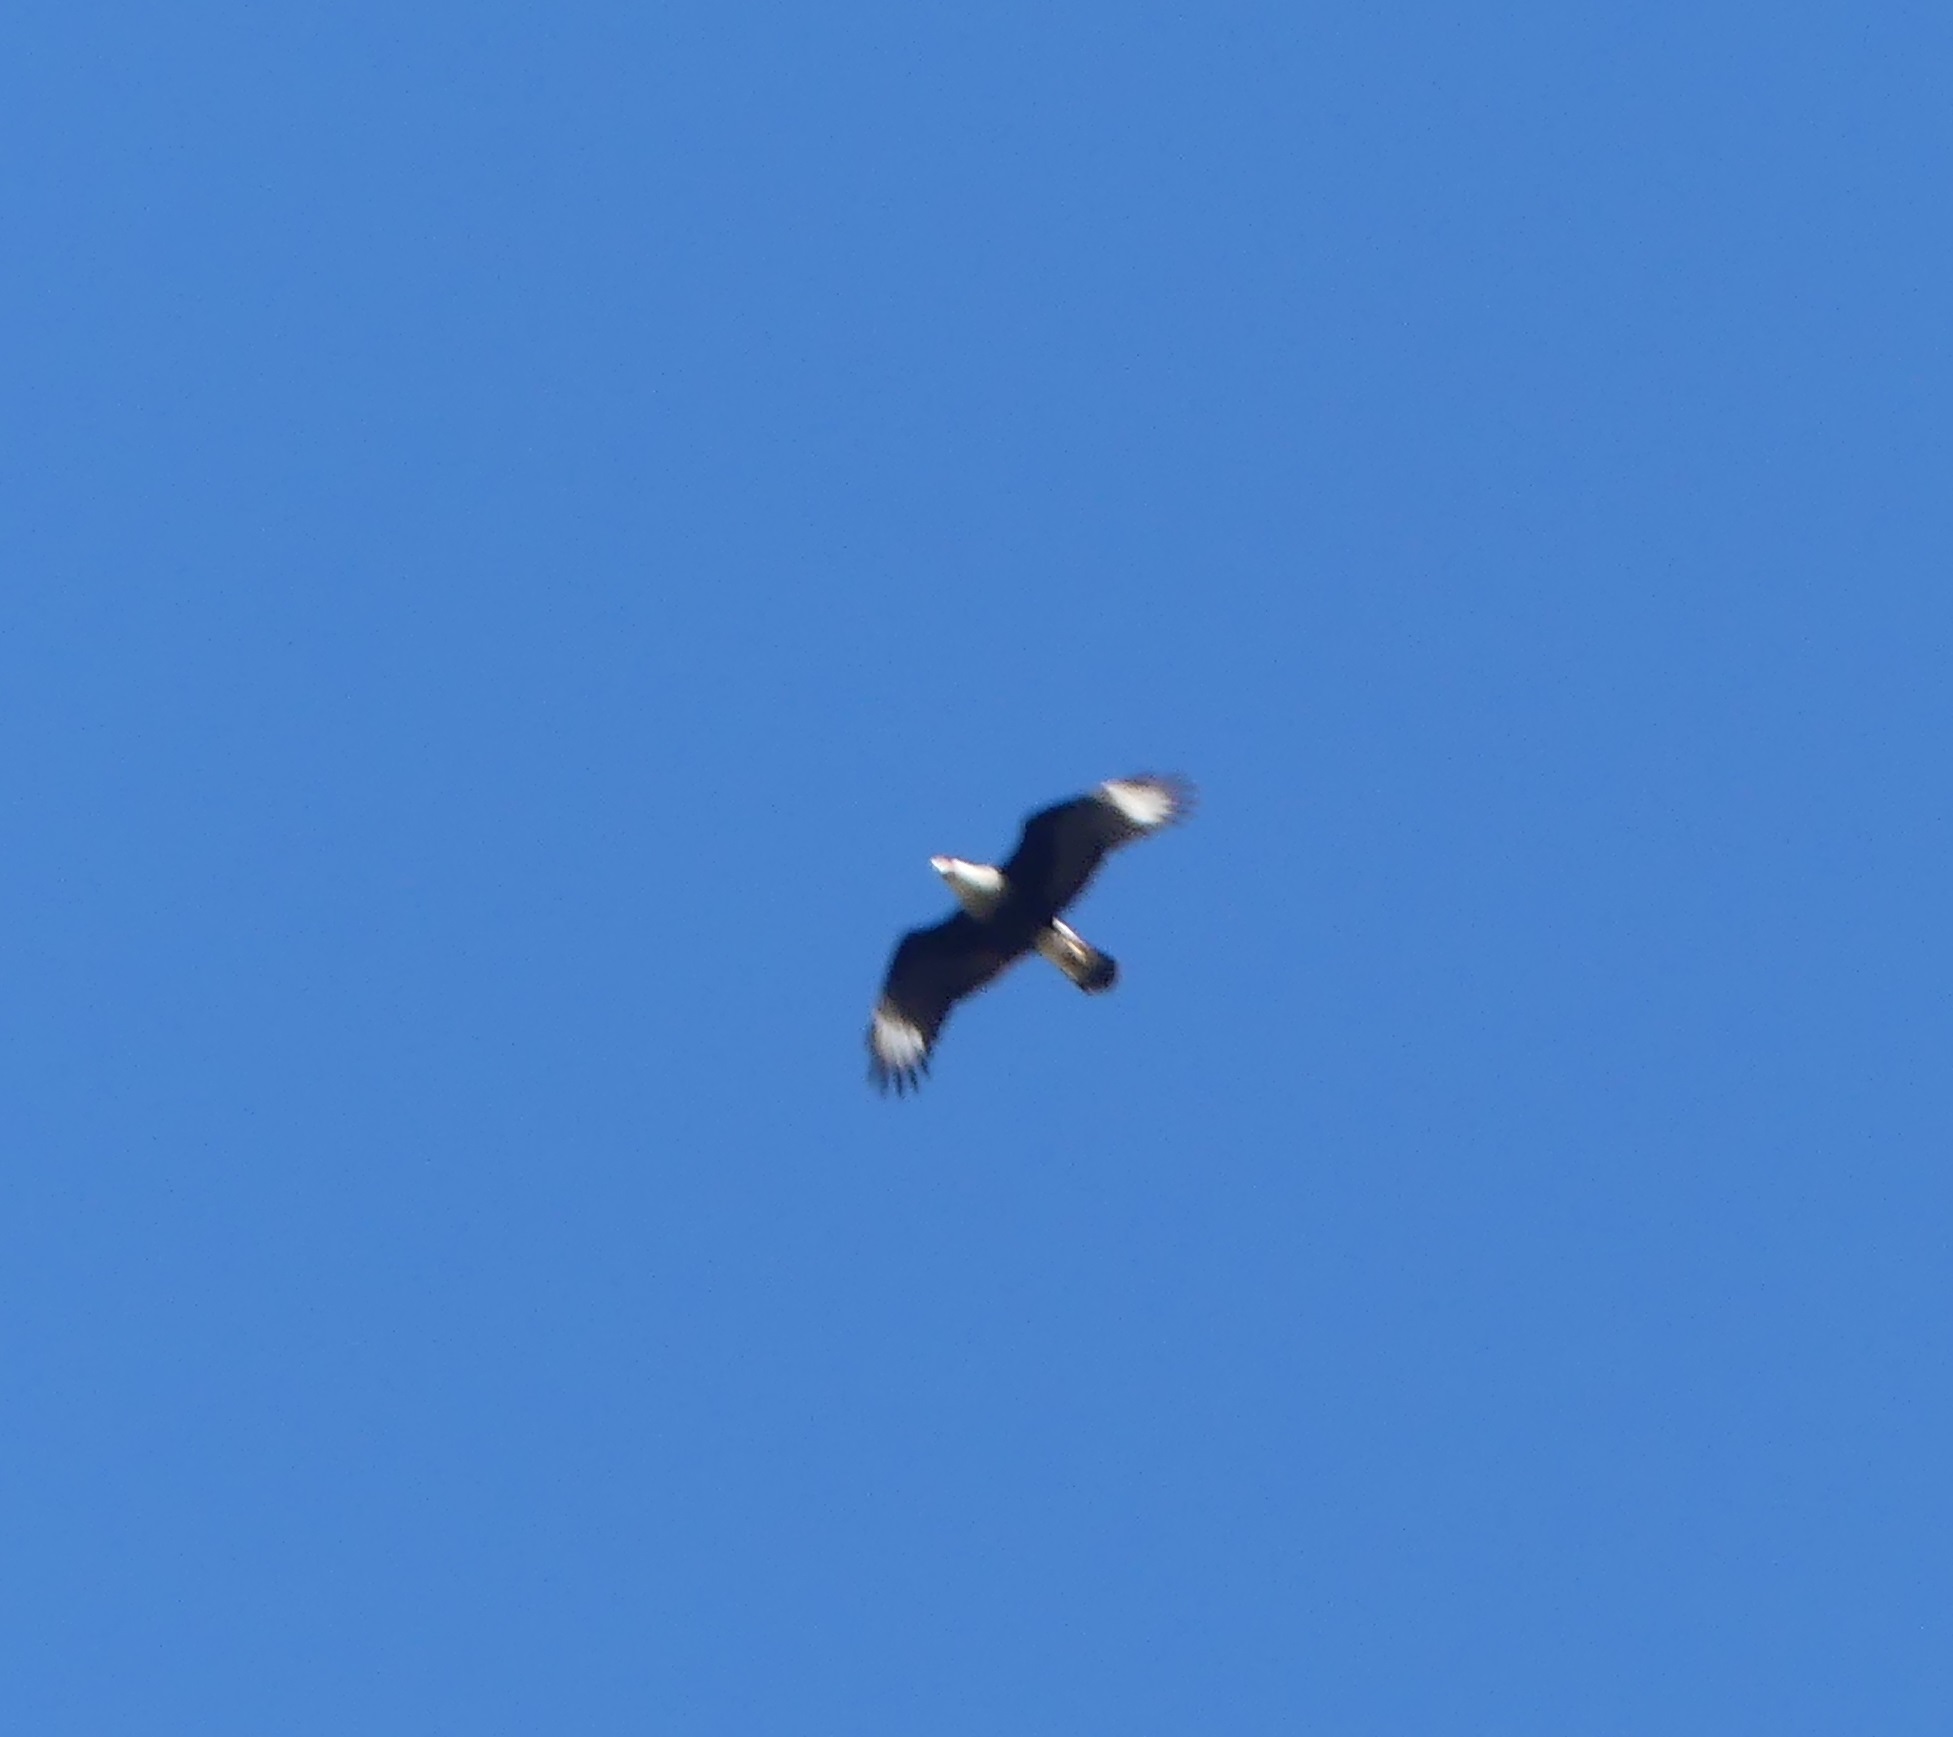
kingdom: Animalia
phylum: Chordata
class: Aves
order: Falconiformes
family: Falconidae
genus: Caracara
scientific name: Caracara plancus
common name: Southern caracara
